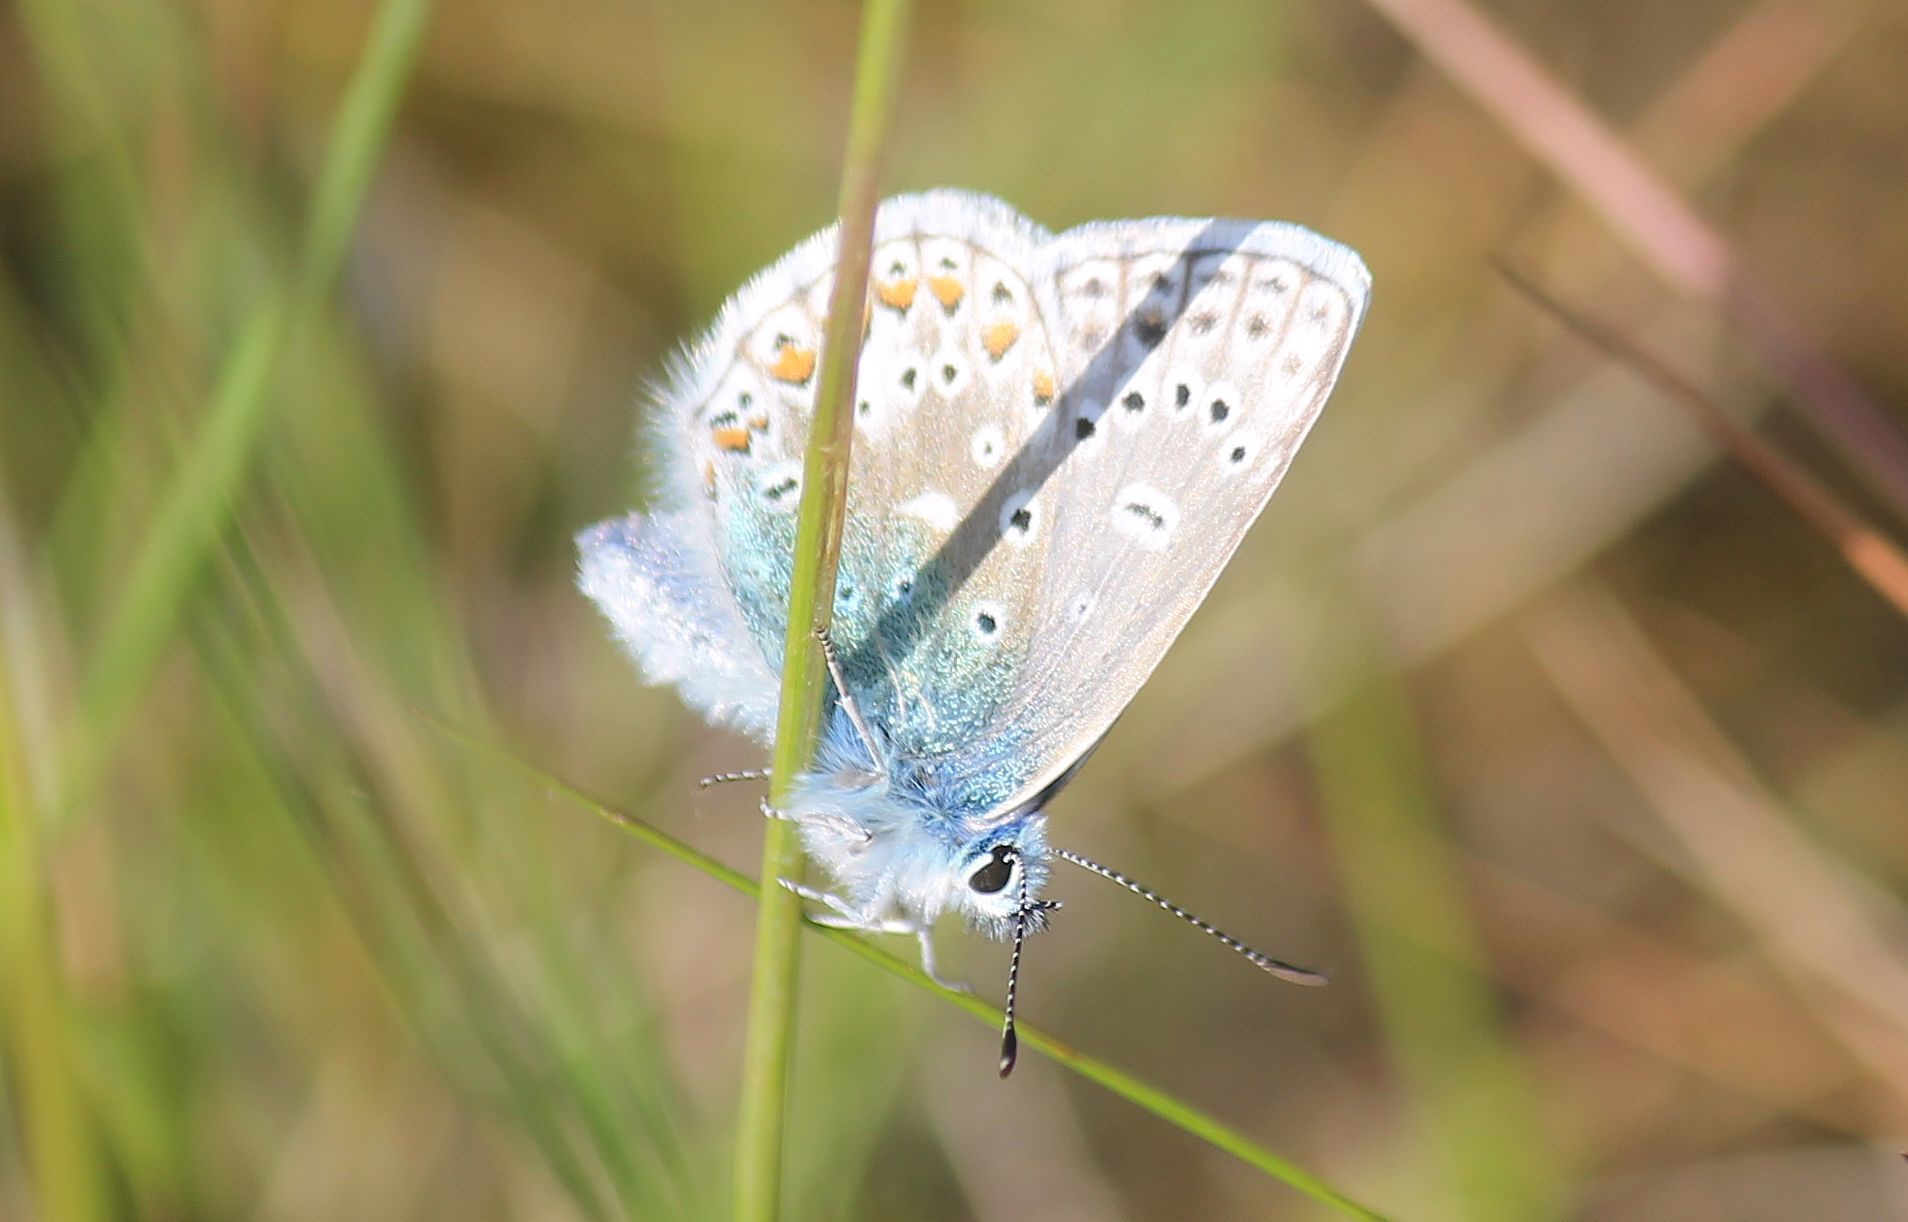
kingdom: Animalia
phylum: Arthropoda
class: Insecta
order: Lepidoptera
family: Lycaenidae
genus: Polyommatus
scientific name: Polyommatus icarus
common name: Common blue
